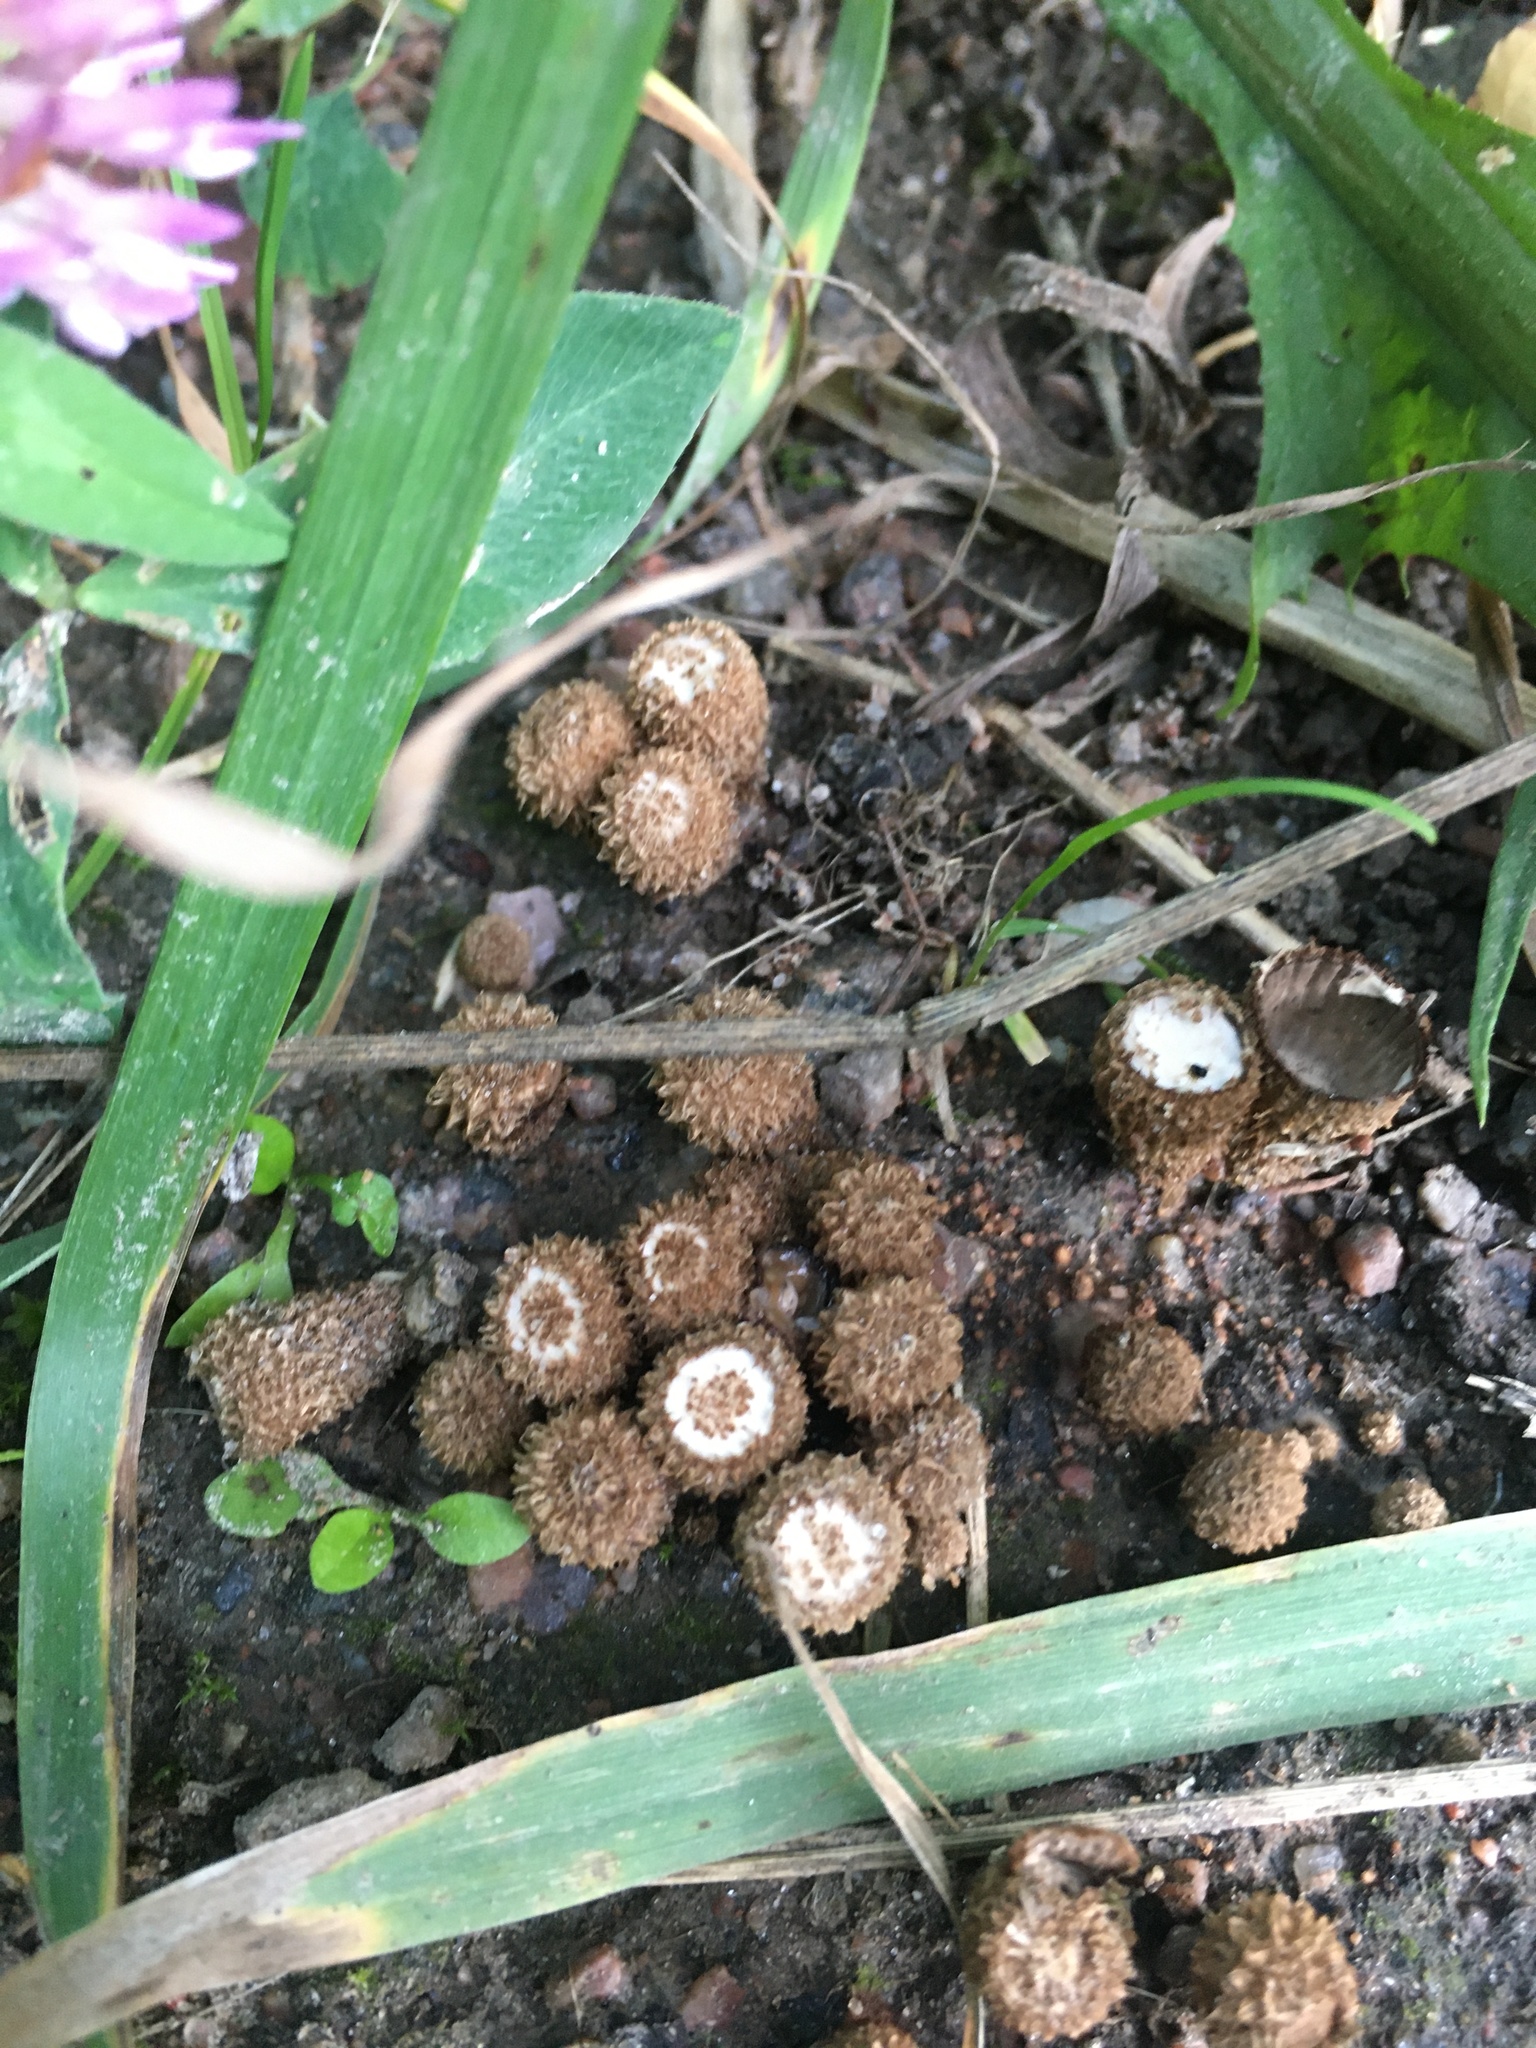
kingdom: Fungi
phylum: Basidiomycota
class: Agaricomycetes
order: Agaricales
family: Agaricaceae
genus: Cyathus
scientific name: Cyathus striatus
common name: Fluted bird's nest
